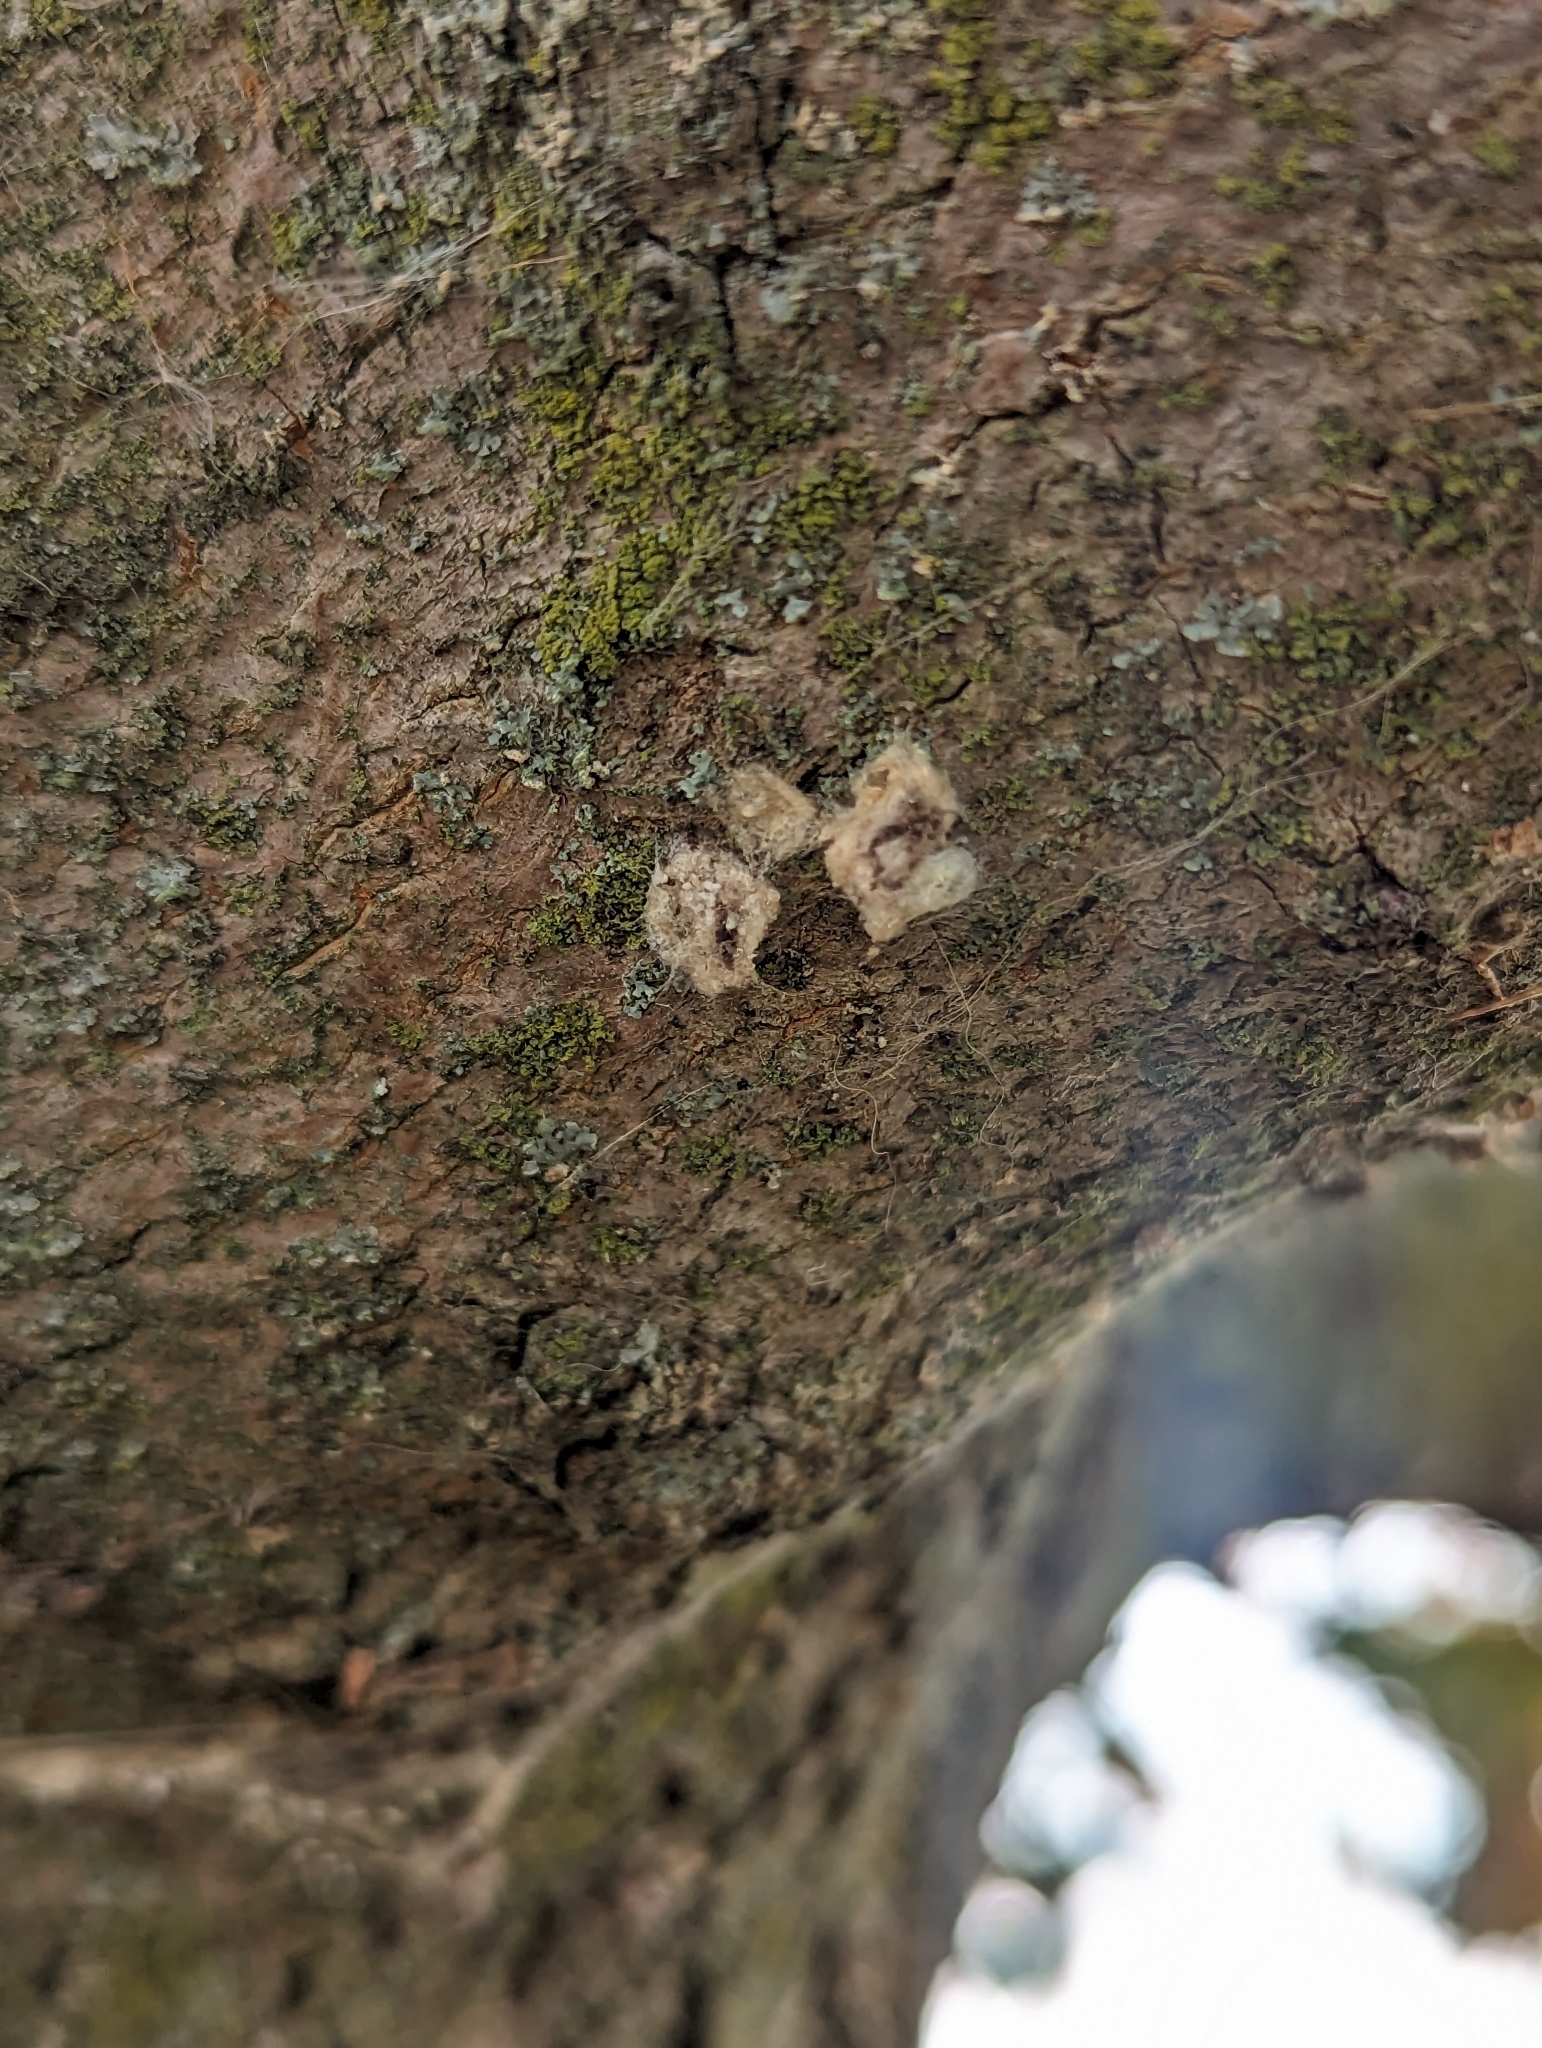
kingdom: Animalia
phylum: Arthropoda
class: Insecta
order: Lepidoptera
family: Erebidae
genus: Lymantria
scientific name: Lymantria dispar
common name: Gypsy moth
